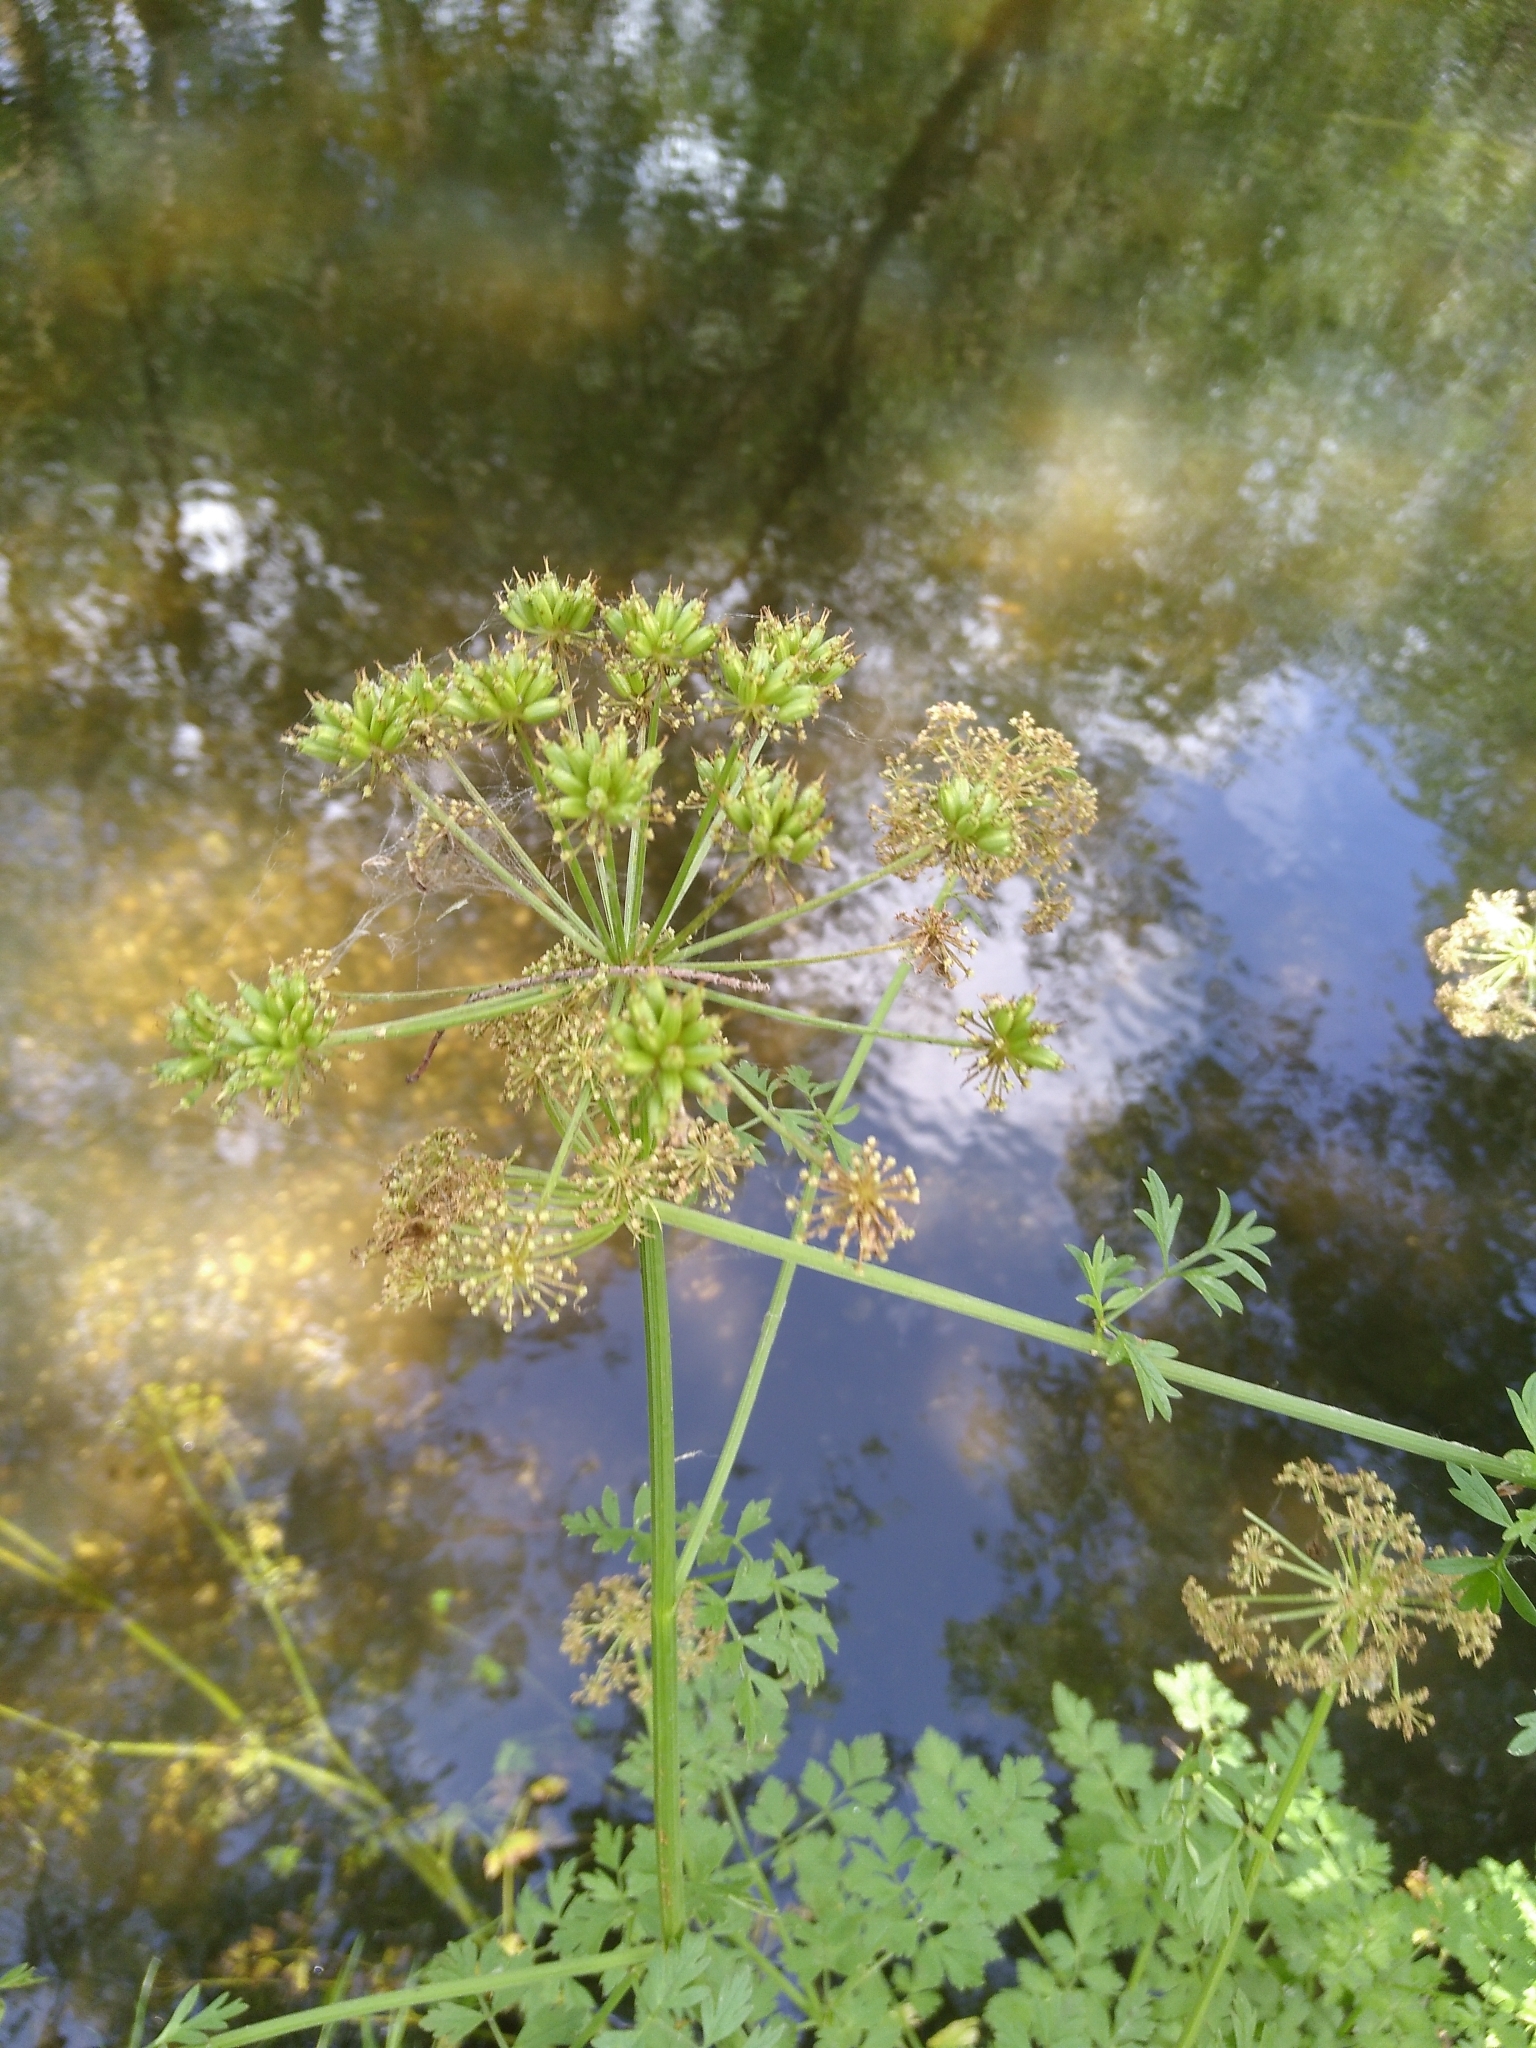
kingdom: Plantae
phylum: Tracheophyta
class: Magnoliopsida
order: Apiales
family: Apiaceae
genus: Oenanthe
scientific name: Oenanthe crocata
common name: Hemlock water-dropwort
